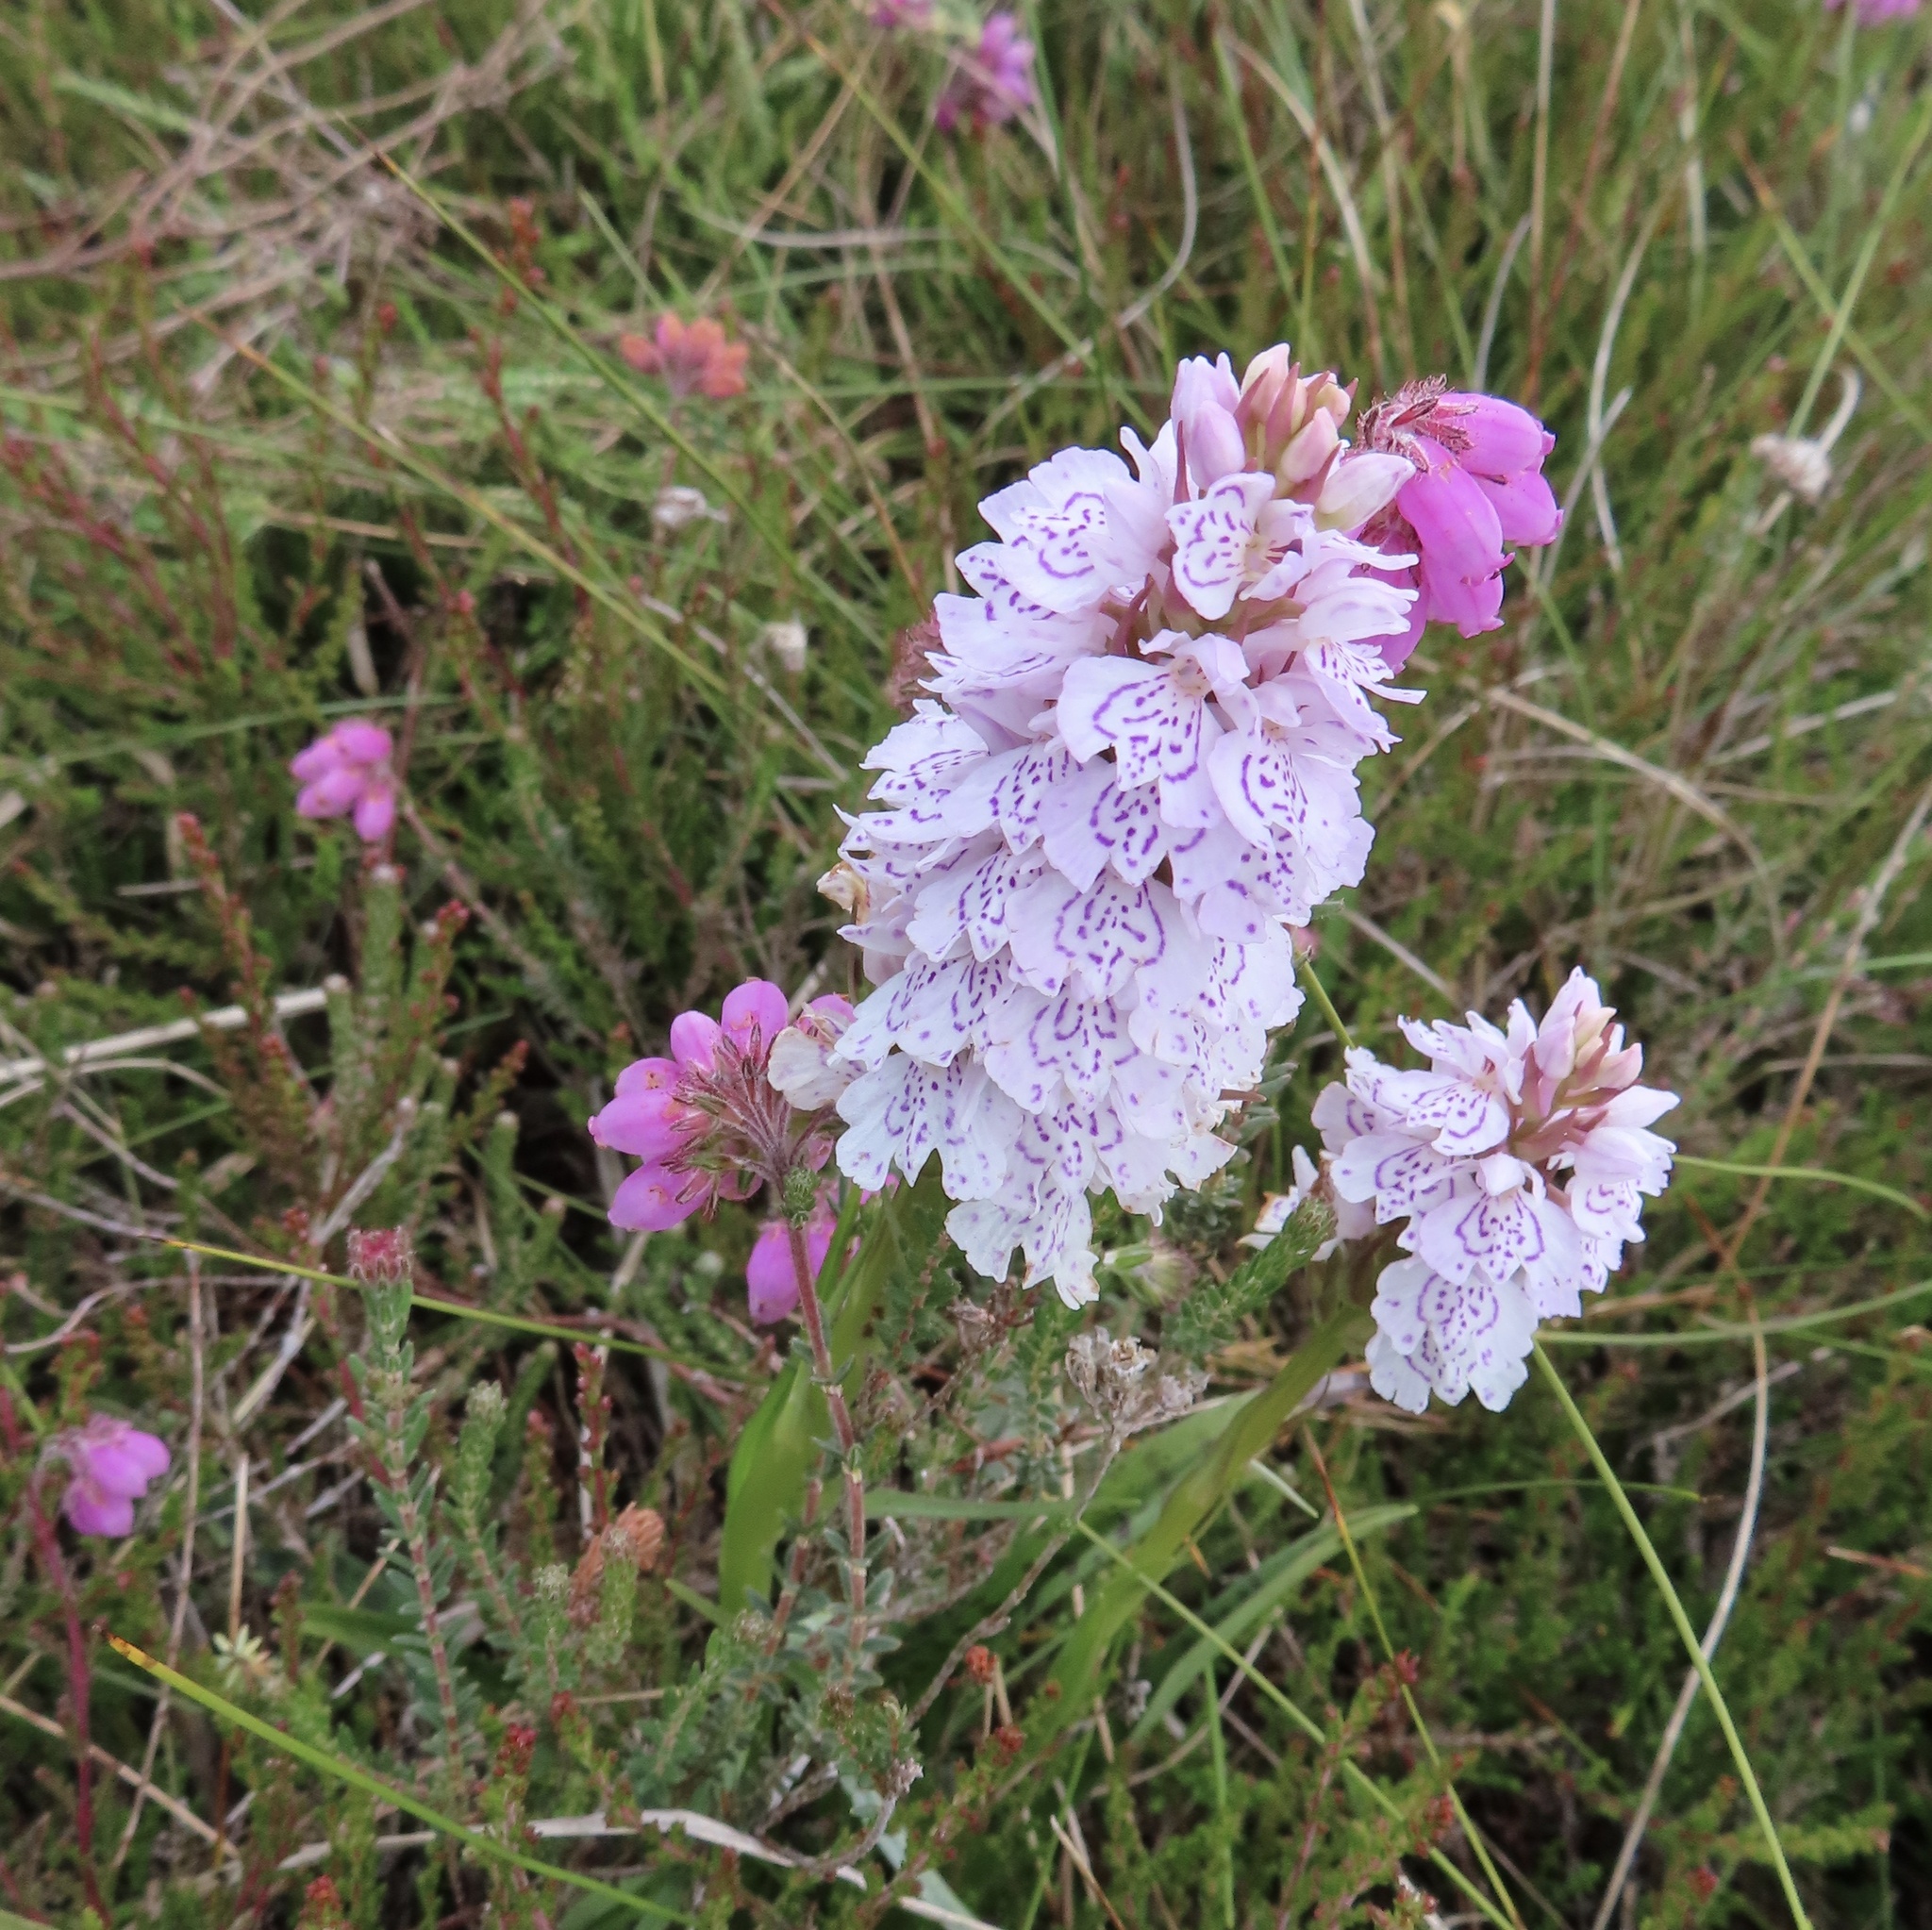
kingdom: Plantae
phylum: Tracheophyta
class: Liliopsida
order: Asparagales
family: Orchidaceae
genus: Dactylorhiza
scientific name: Dactylorhiza maculata
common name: Heath spotted-orchid
